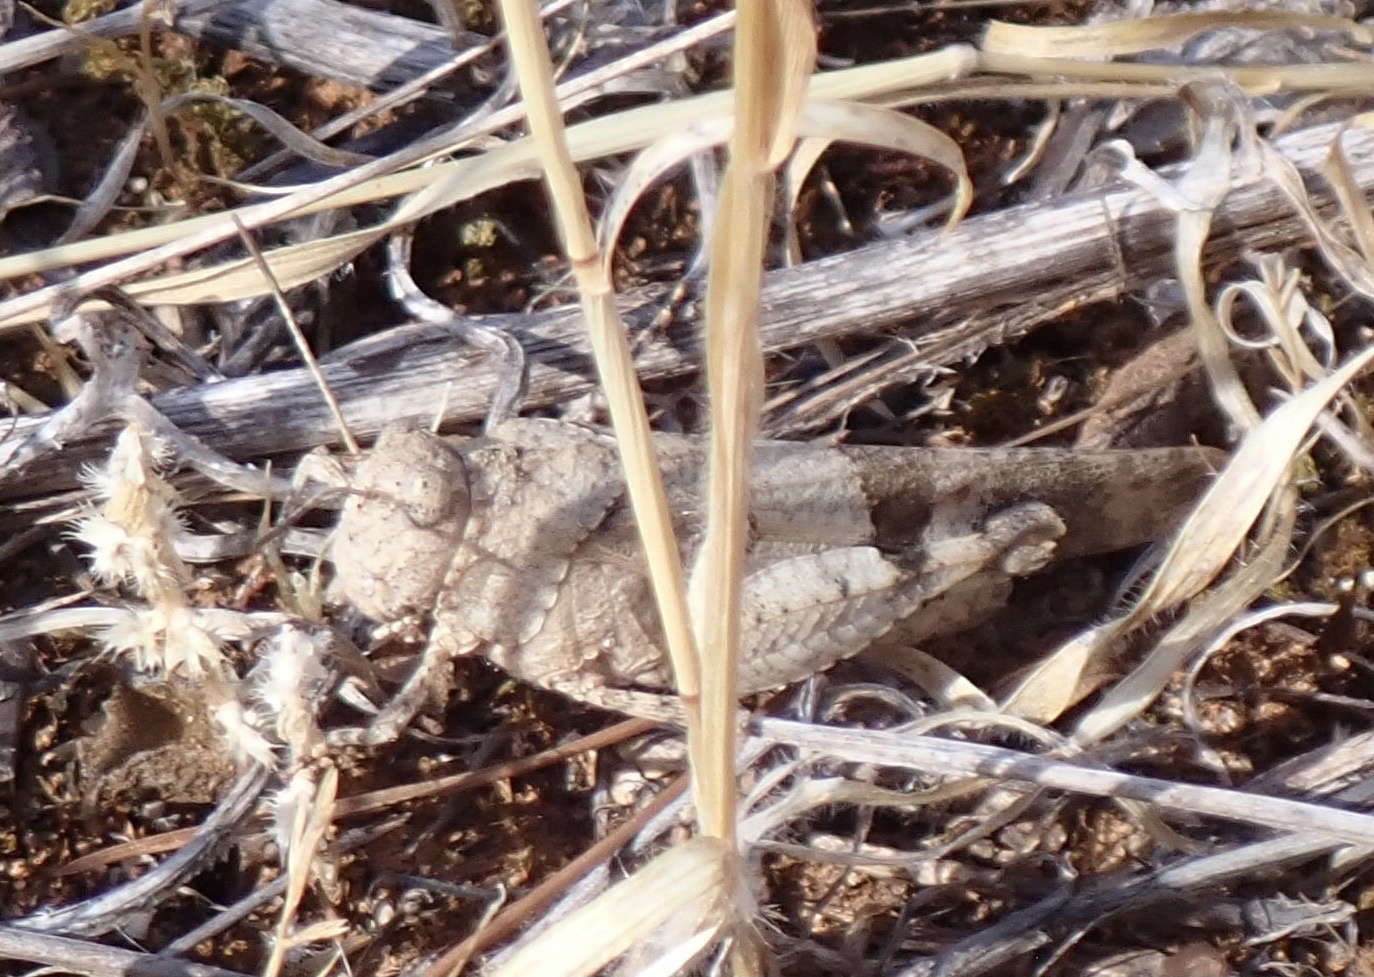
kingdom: Animalia
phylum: Arthropoda
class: Insecta
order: Orthoptera
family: Acrididae
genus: Oedipoda
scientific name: Oedipoda caerulescens
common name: Blue-winged grasshopper
